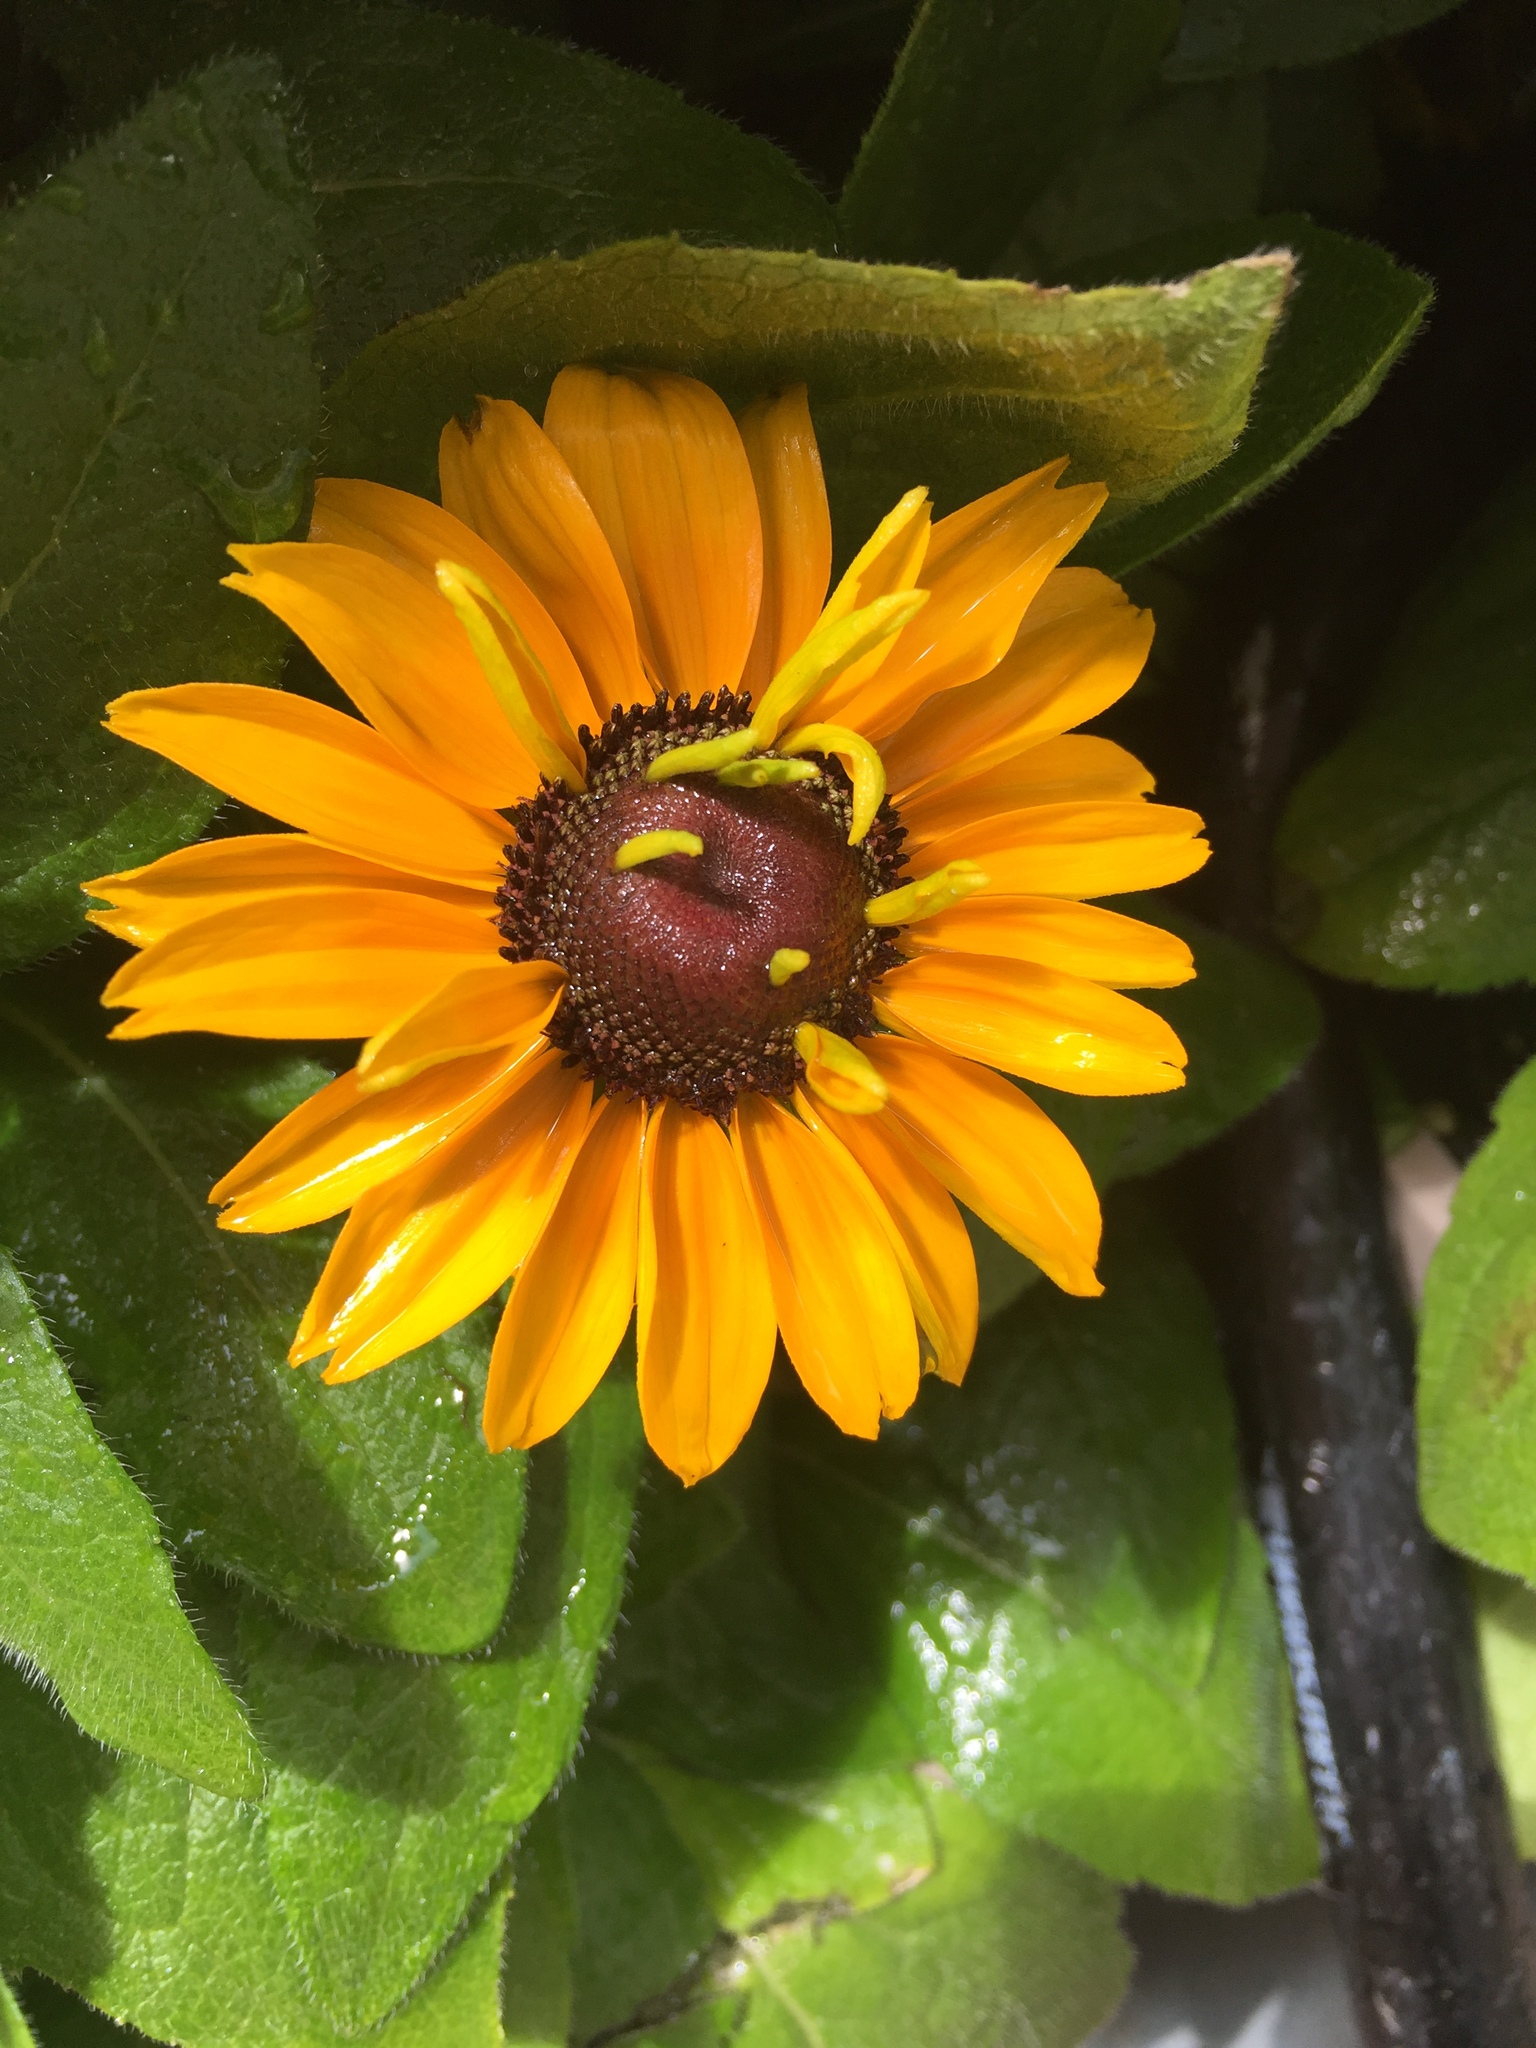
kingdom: Plantae
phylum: Tracheophyta
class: Magnoliopsida
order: Asterales
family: Asteraceae
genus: Rudbeckia
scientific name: Rudbeckia hirta
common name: Black-eyed-susan
